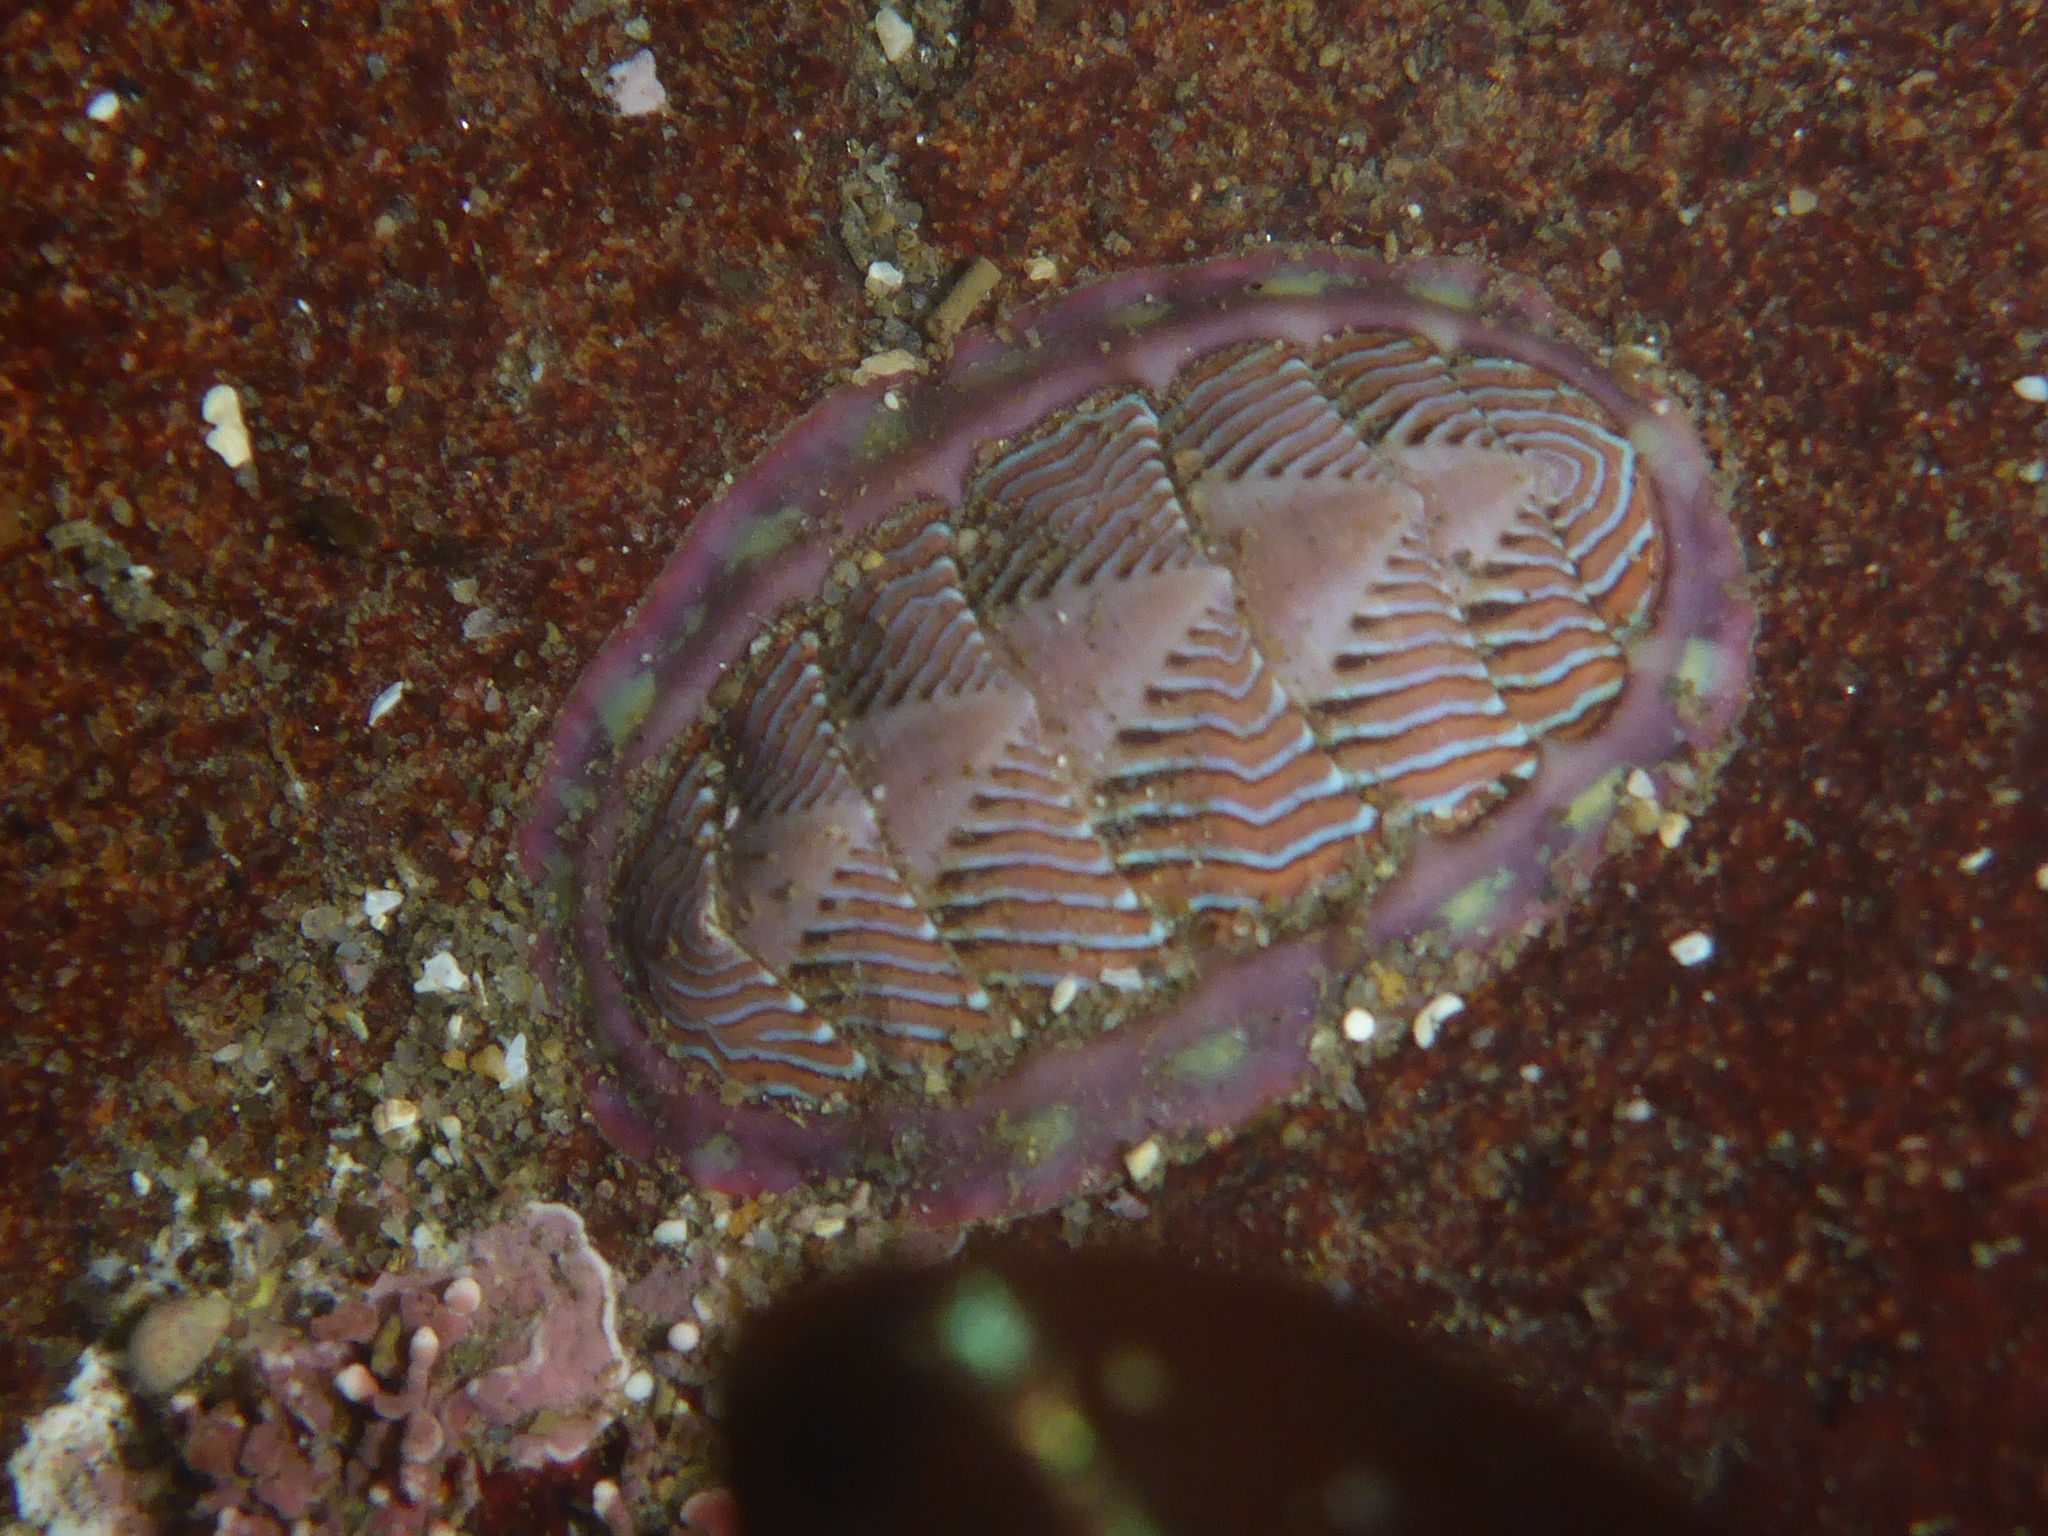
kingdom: Animalia
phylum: Mollusca
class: Polyplacophora
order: Chitonida
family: Tonicellidae
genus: Tonicella
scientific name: Tonicella lineata
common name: Lined chiton
